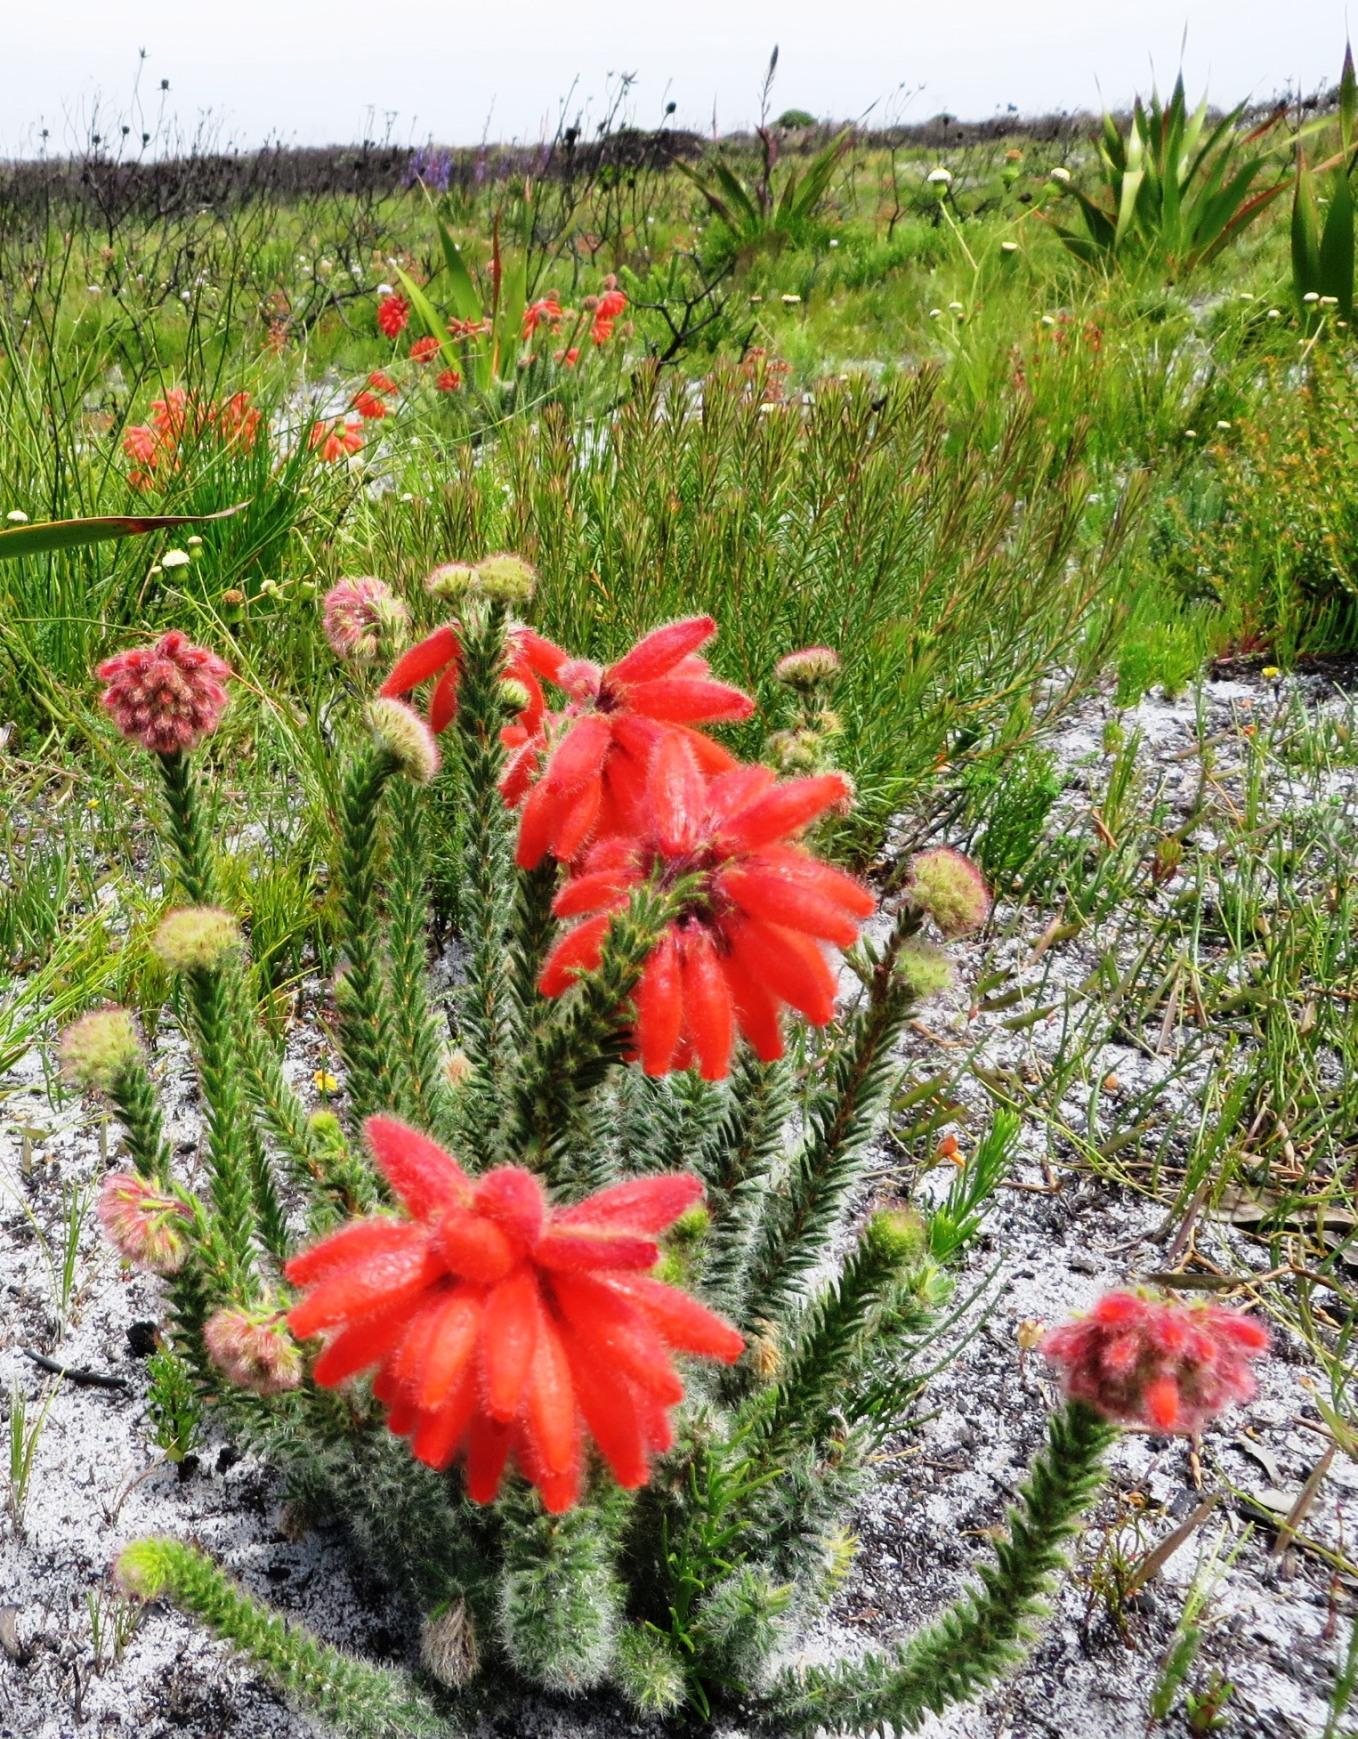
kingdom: Plantae
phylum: Tracheophyta
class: Magnoliopsida
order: Ericales
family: Ericaceae
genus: Erica
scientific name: Erica cerinthoides
